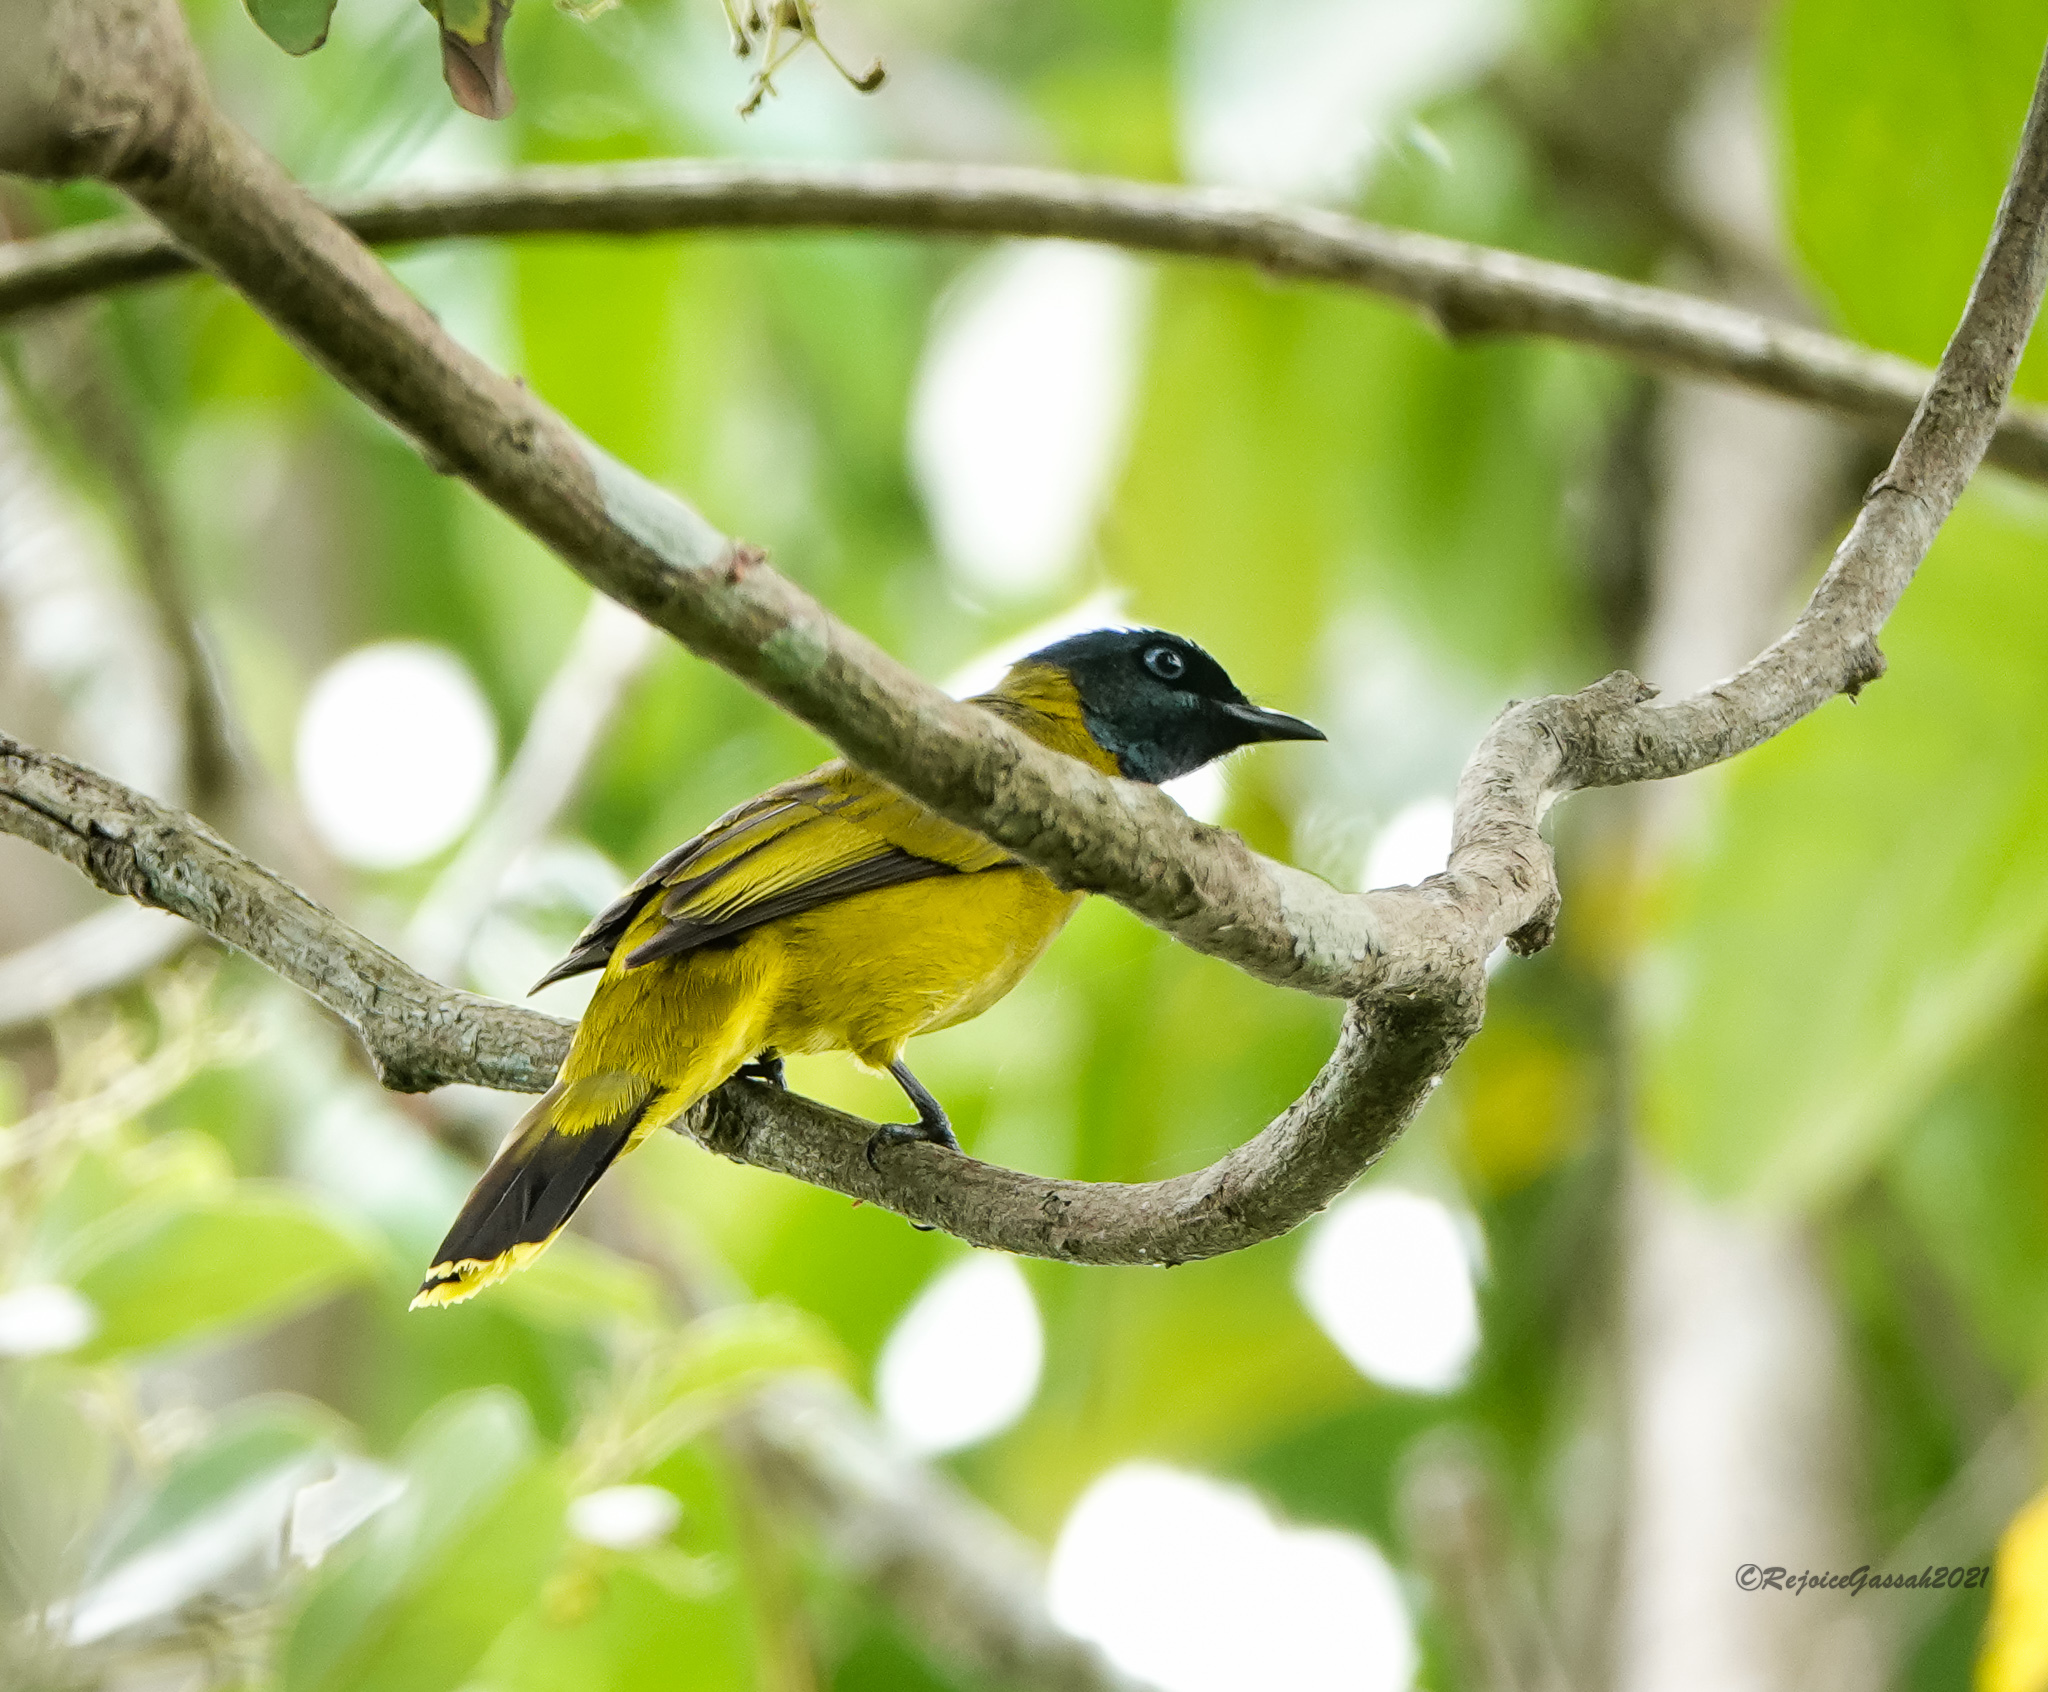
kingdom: Animalia
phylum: Chordata
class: Aves
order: Passeriformes
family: Pycnonotidae
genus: Microtarsus
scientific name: Microtarsus
